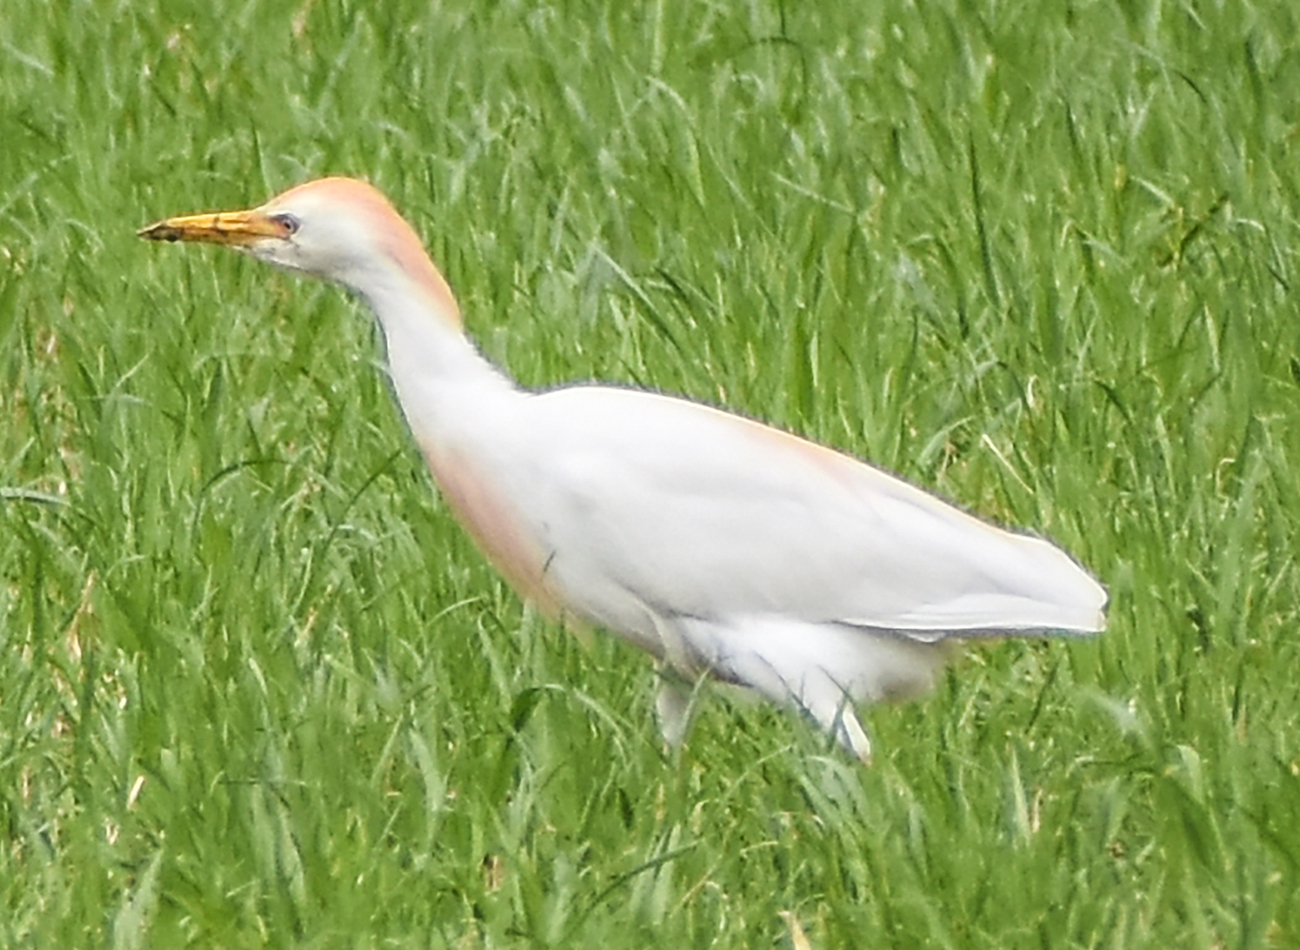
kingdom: Animalia
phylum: Chordata
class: Aves
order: Pelecaniformes
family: Ardeidae
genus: Bubulcus
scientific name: Bubulcus ibis
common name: Cattle egret
